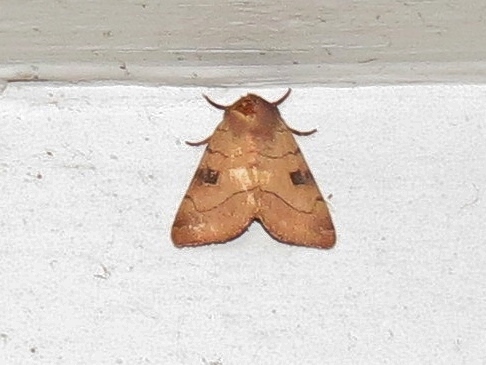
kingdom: Animalia
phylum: Arthropoda
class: Insecta
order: Lepidoptera
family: Noctuidae
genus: Choephora
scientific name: Choephora fungorum
